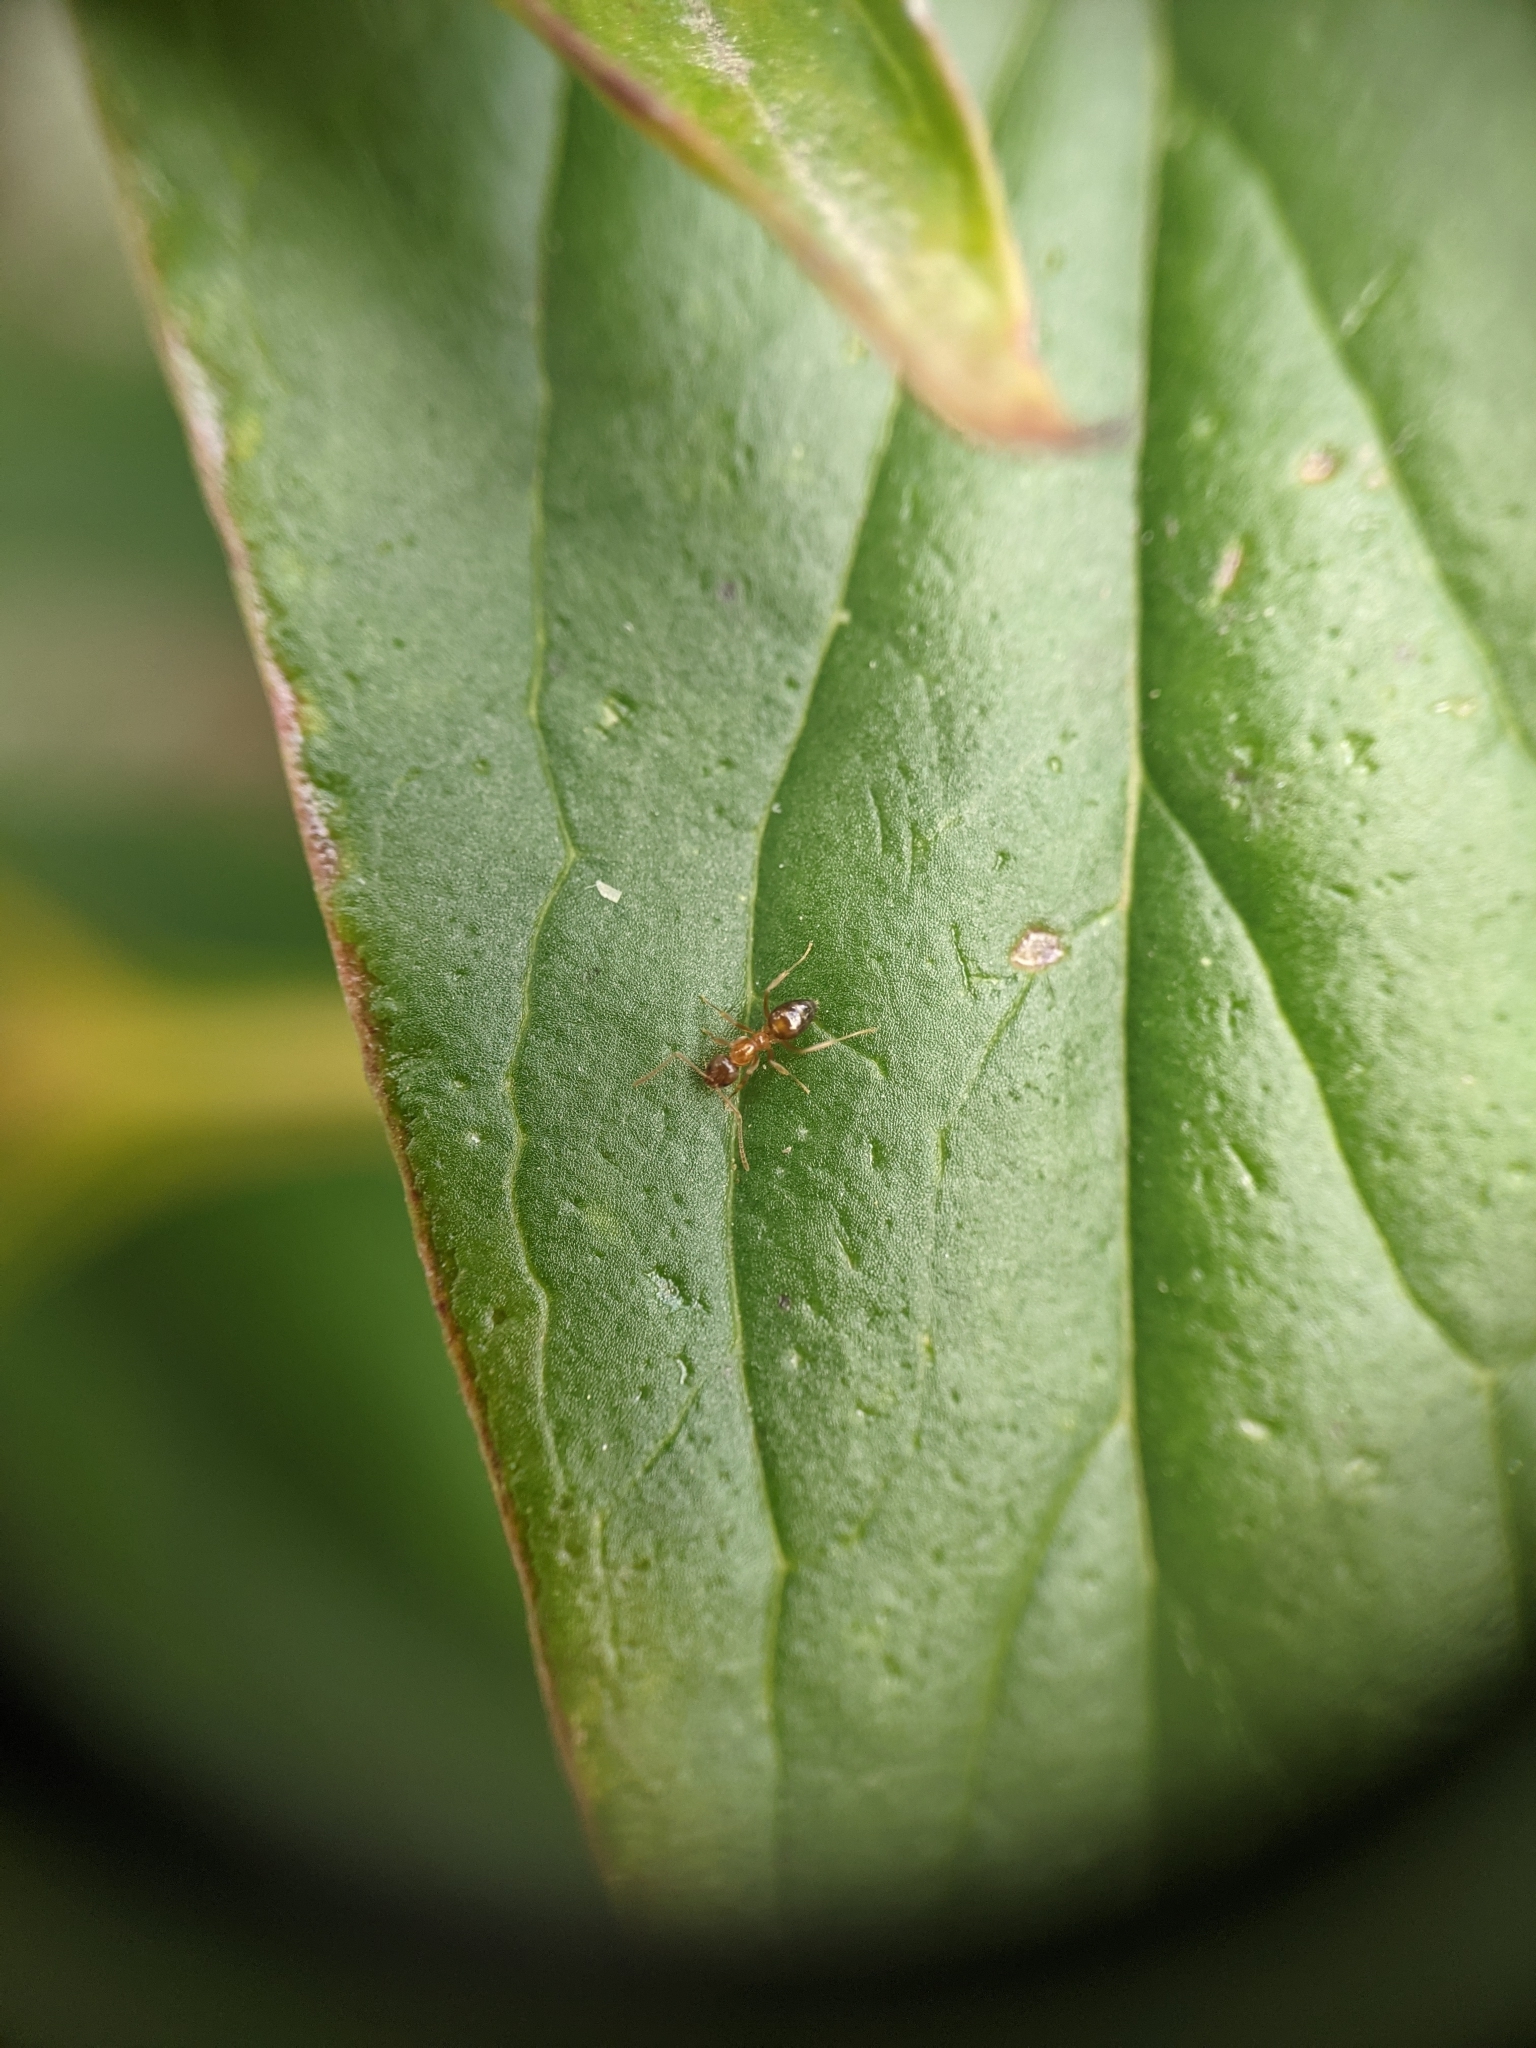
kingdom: Animalia
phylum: Arthropoda
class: Insecta
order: Hymenoptera
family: Formicidae
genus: Paratrechina
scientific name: Paratrechina flavipes
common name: Eastern asian formicine ant
